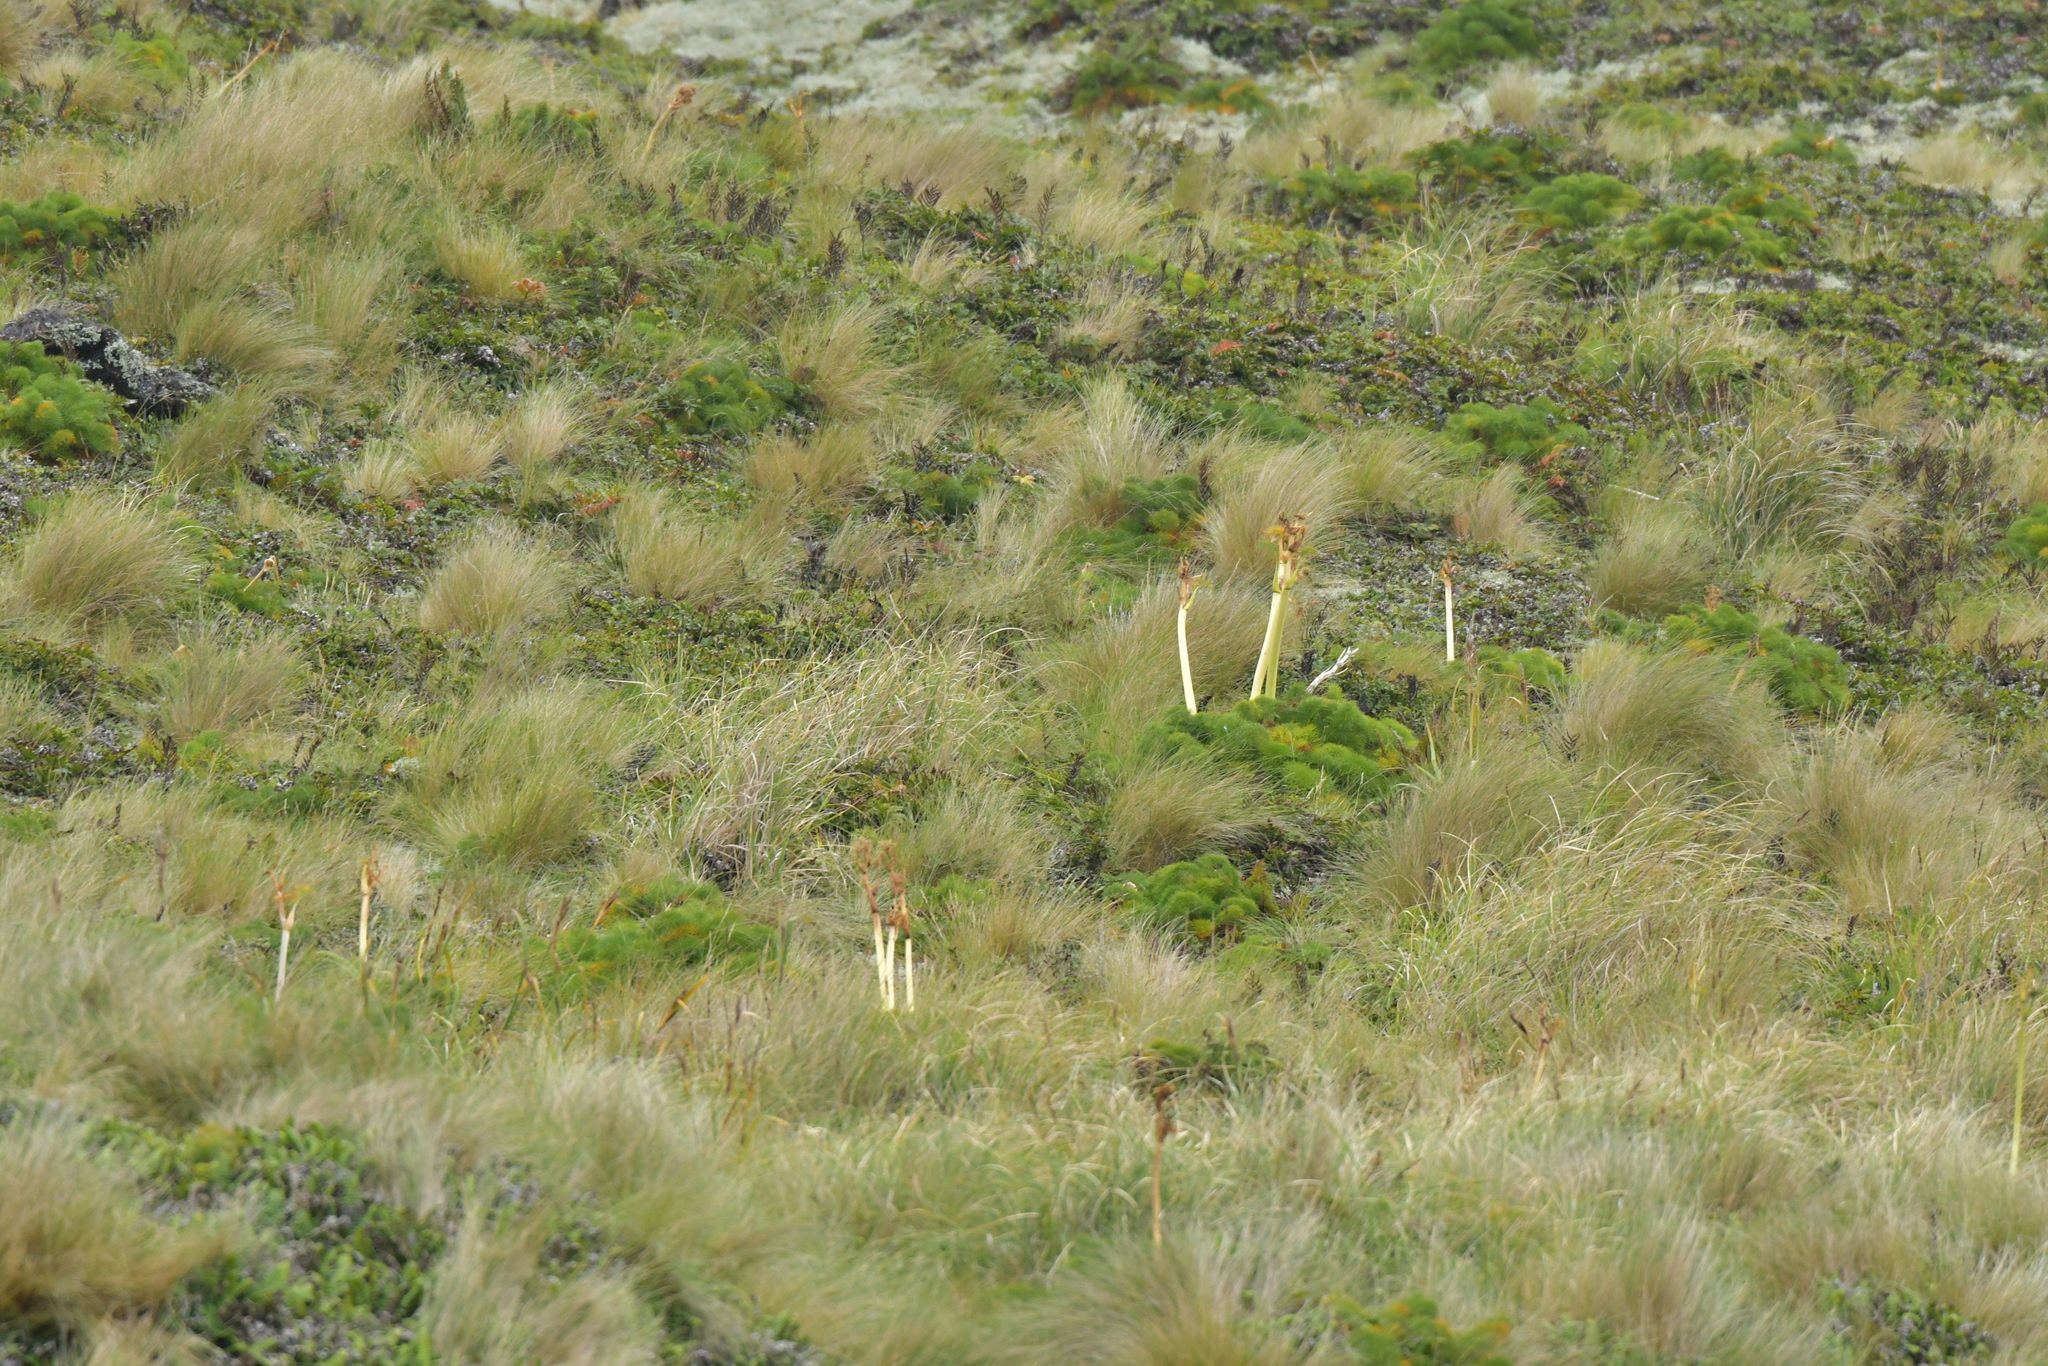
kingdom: Plantae
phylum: Tracheophyta
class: Magnoliopsida
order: Apiales
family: Apiaceae
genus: Anisotome
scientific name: Anisotome antipoda
